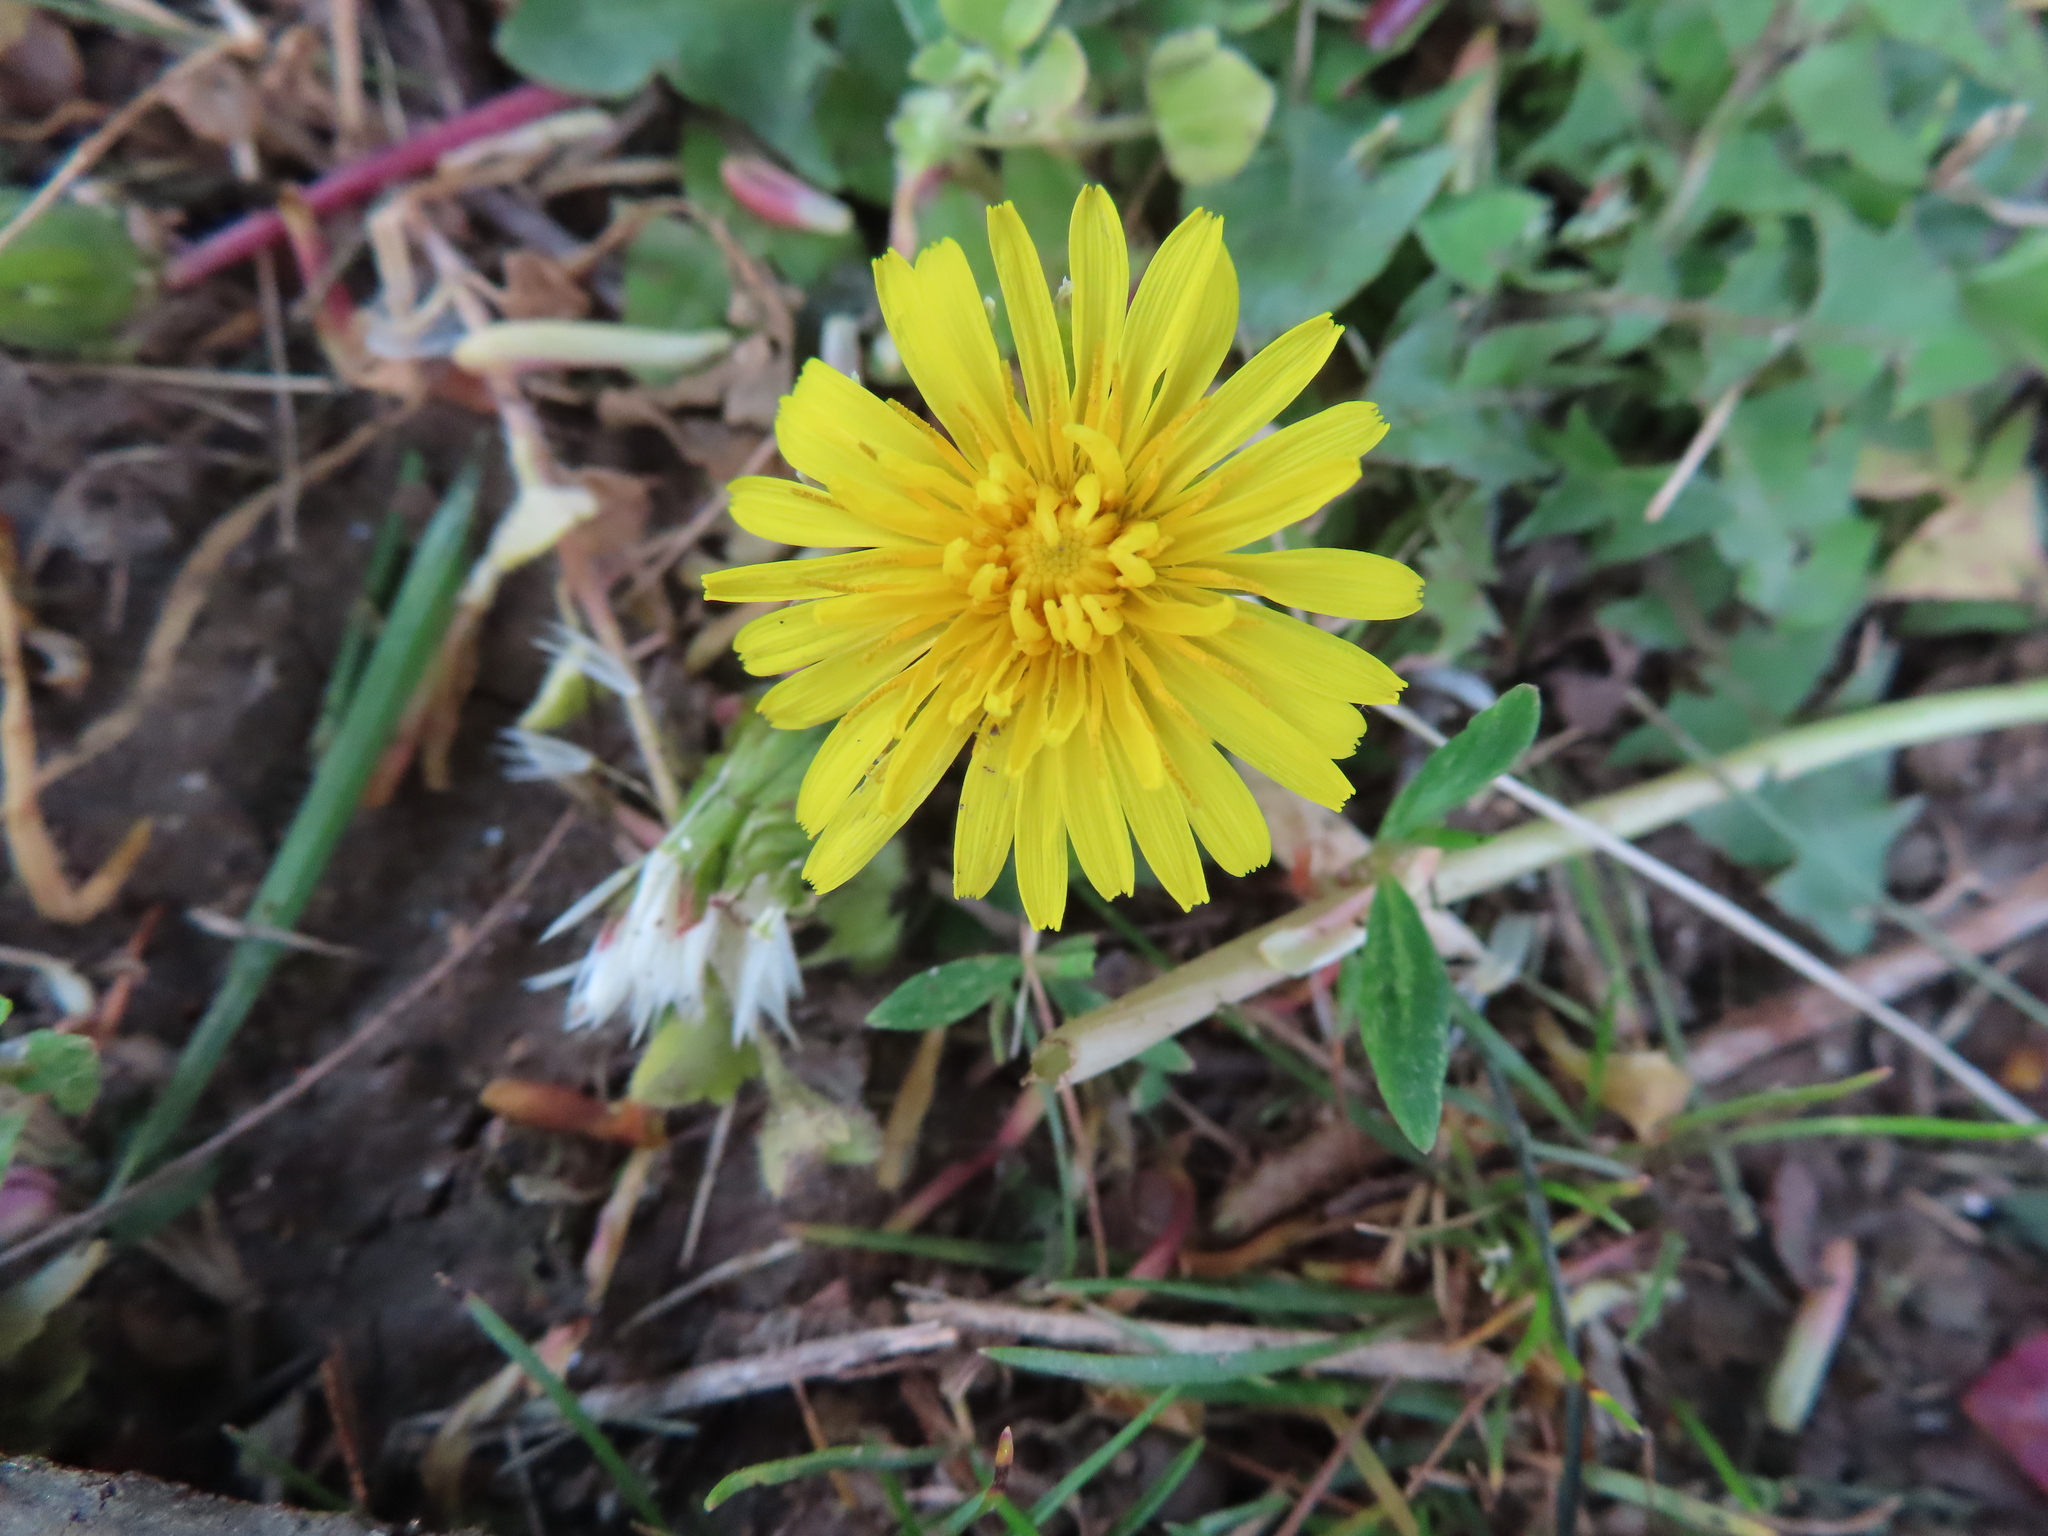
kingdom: Plantae
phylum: Tracheophyta
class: Magnoliopsida
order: Asterales
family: Asteraceae
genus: Taraxacum
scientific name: Taraxacum
